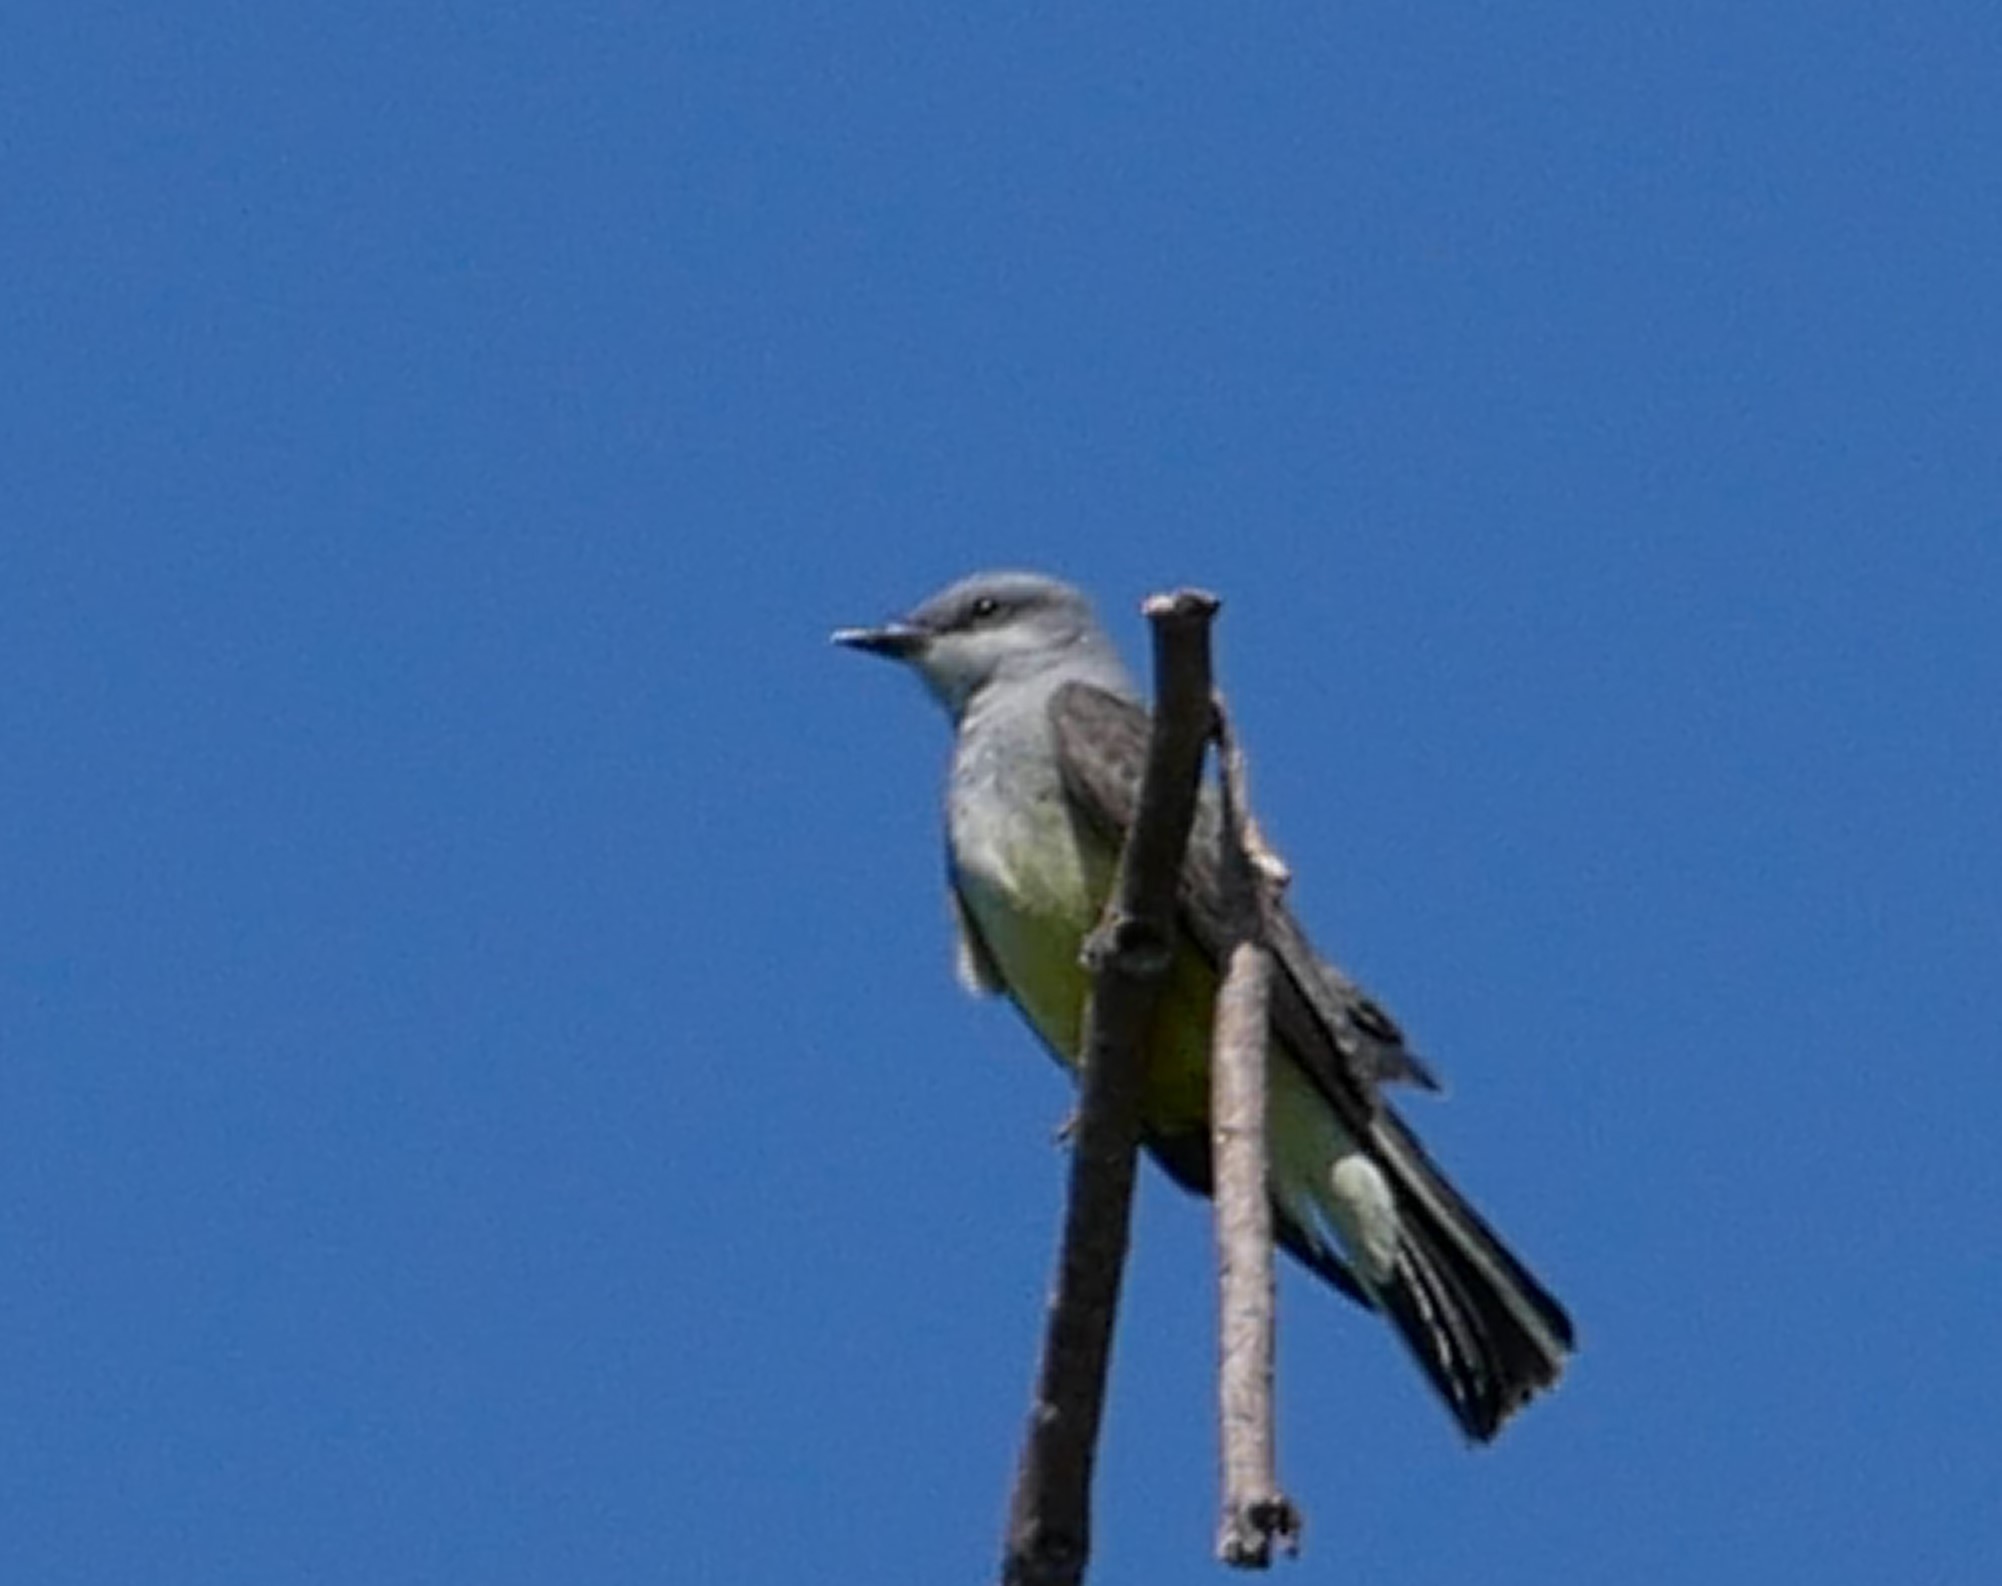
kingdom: Animalia
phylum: Chordata
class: Aves
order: Passeriformes
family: Tyrannidae
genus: Tyrannus
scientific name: Tyrannus verticalis
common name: Western kingbird
